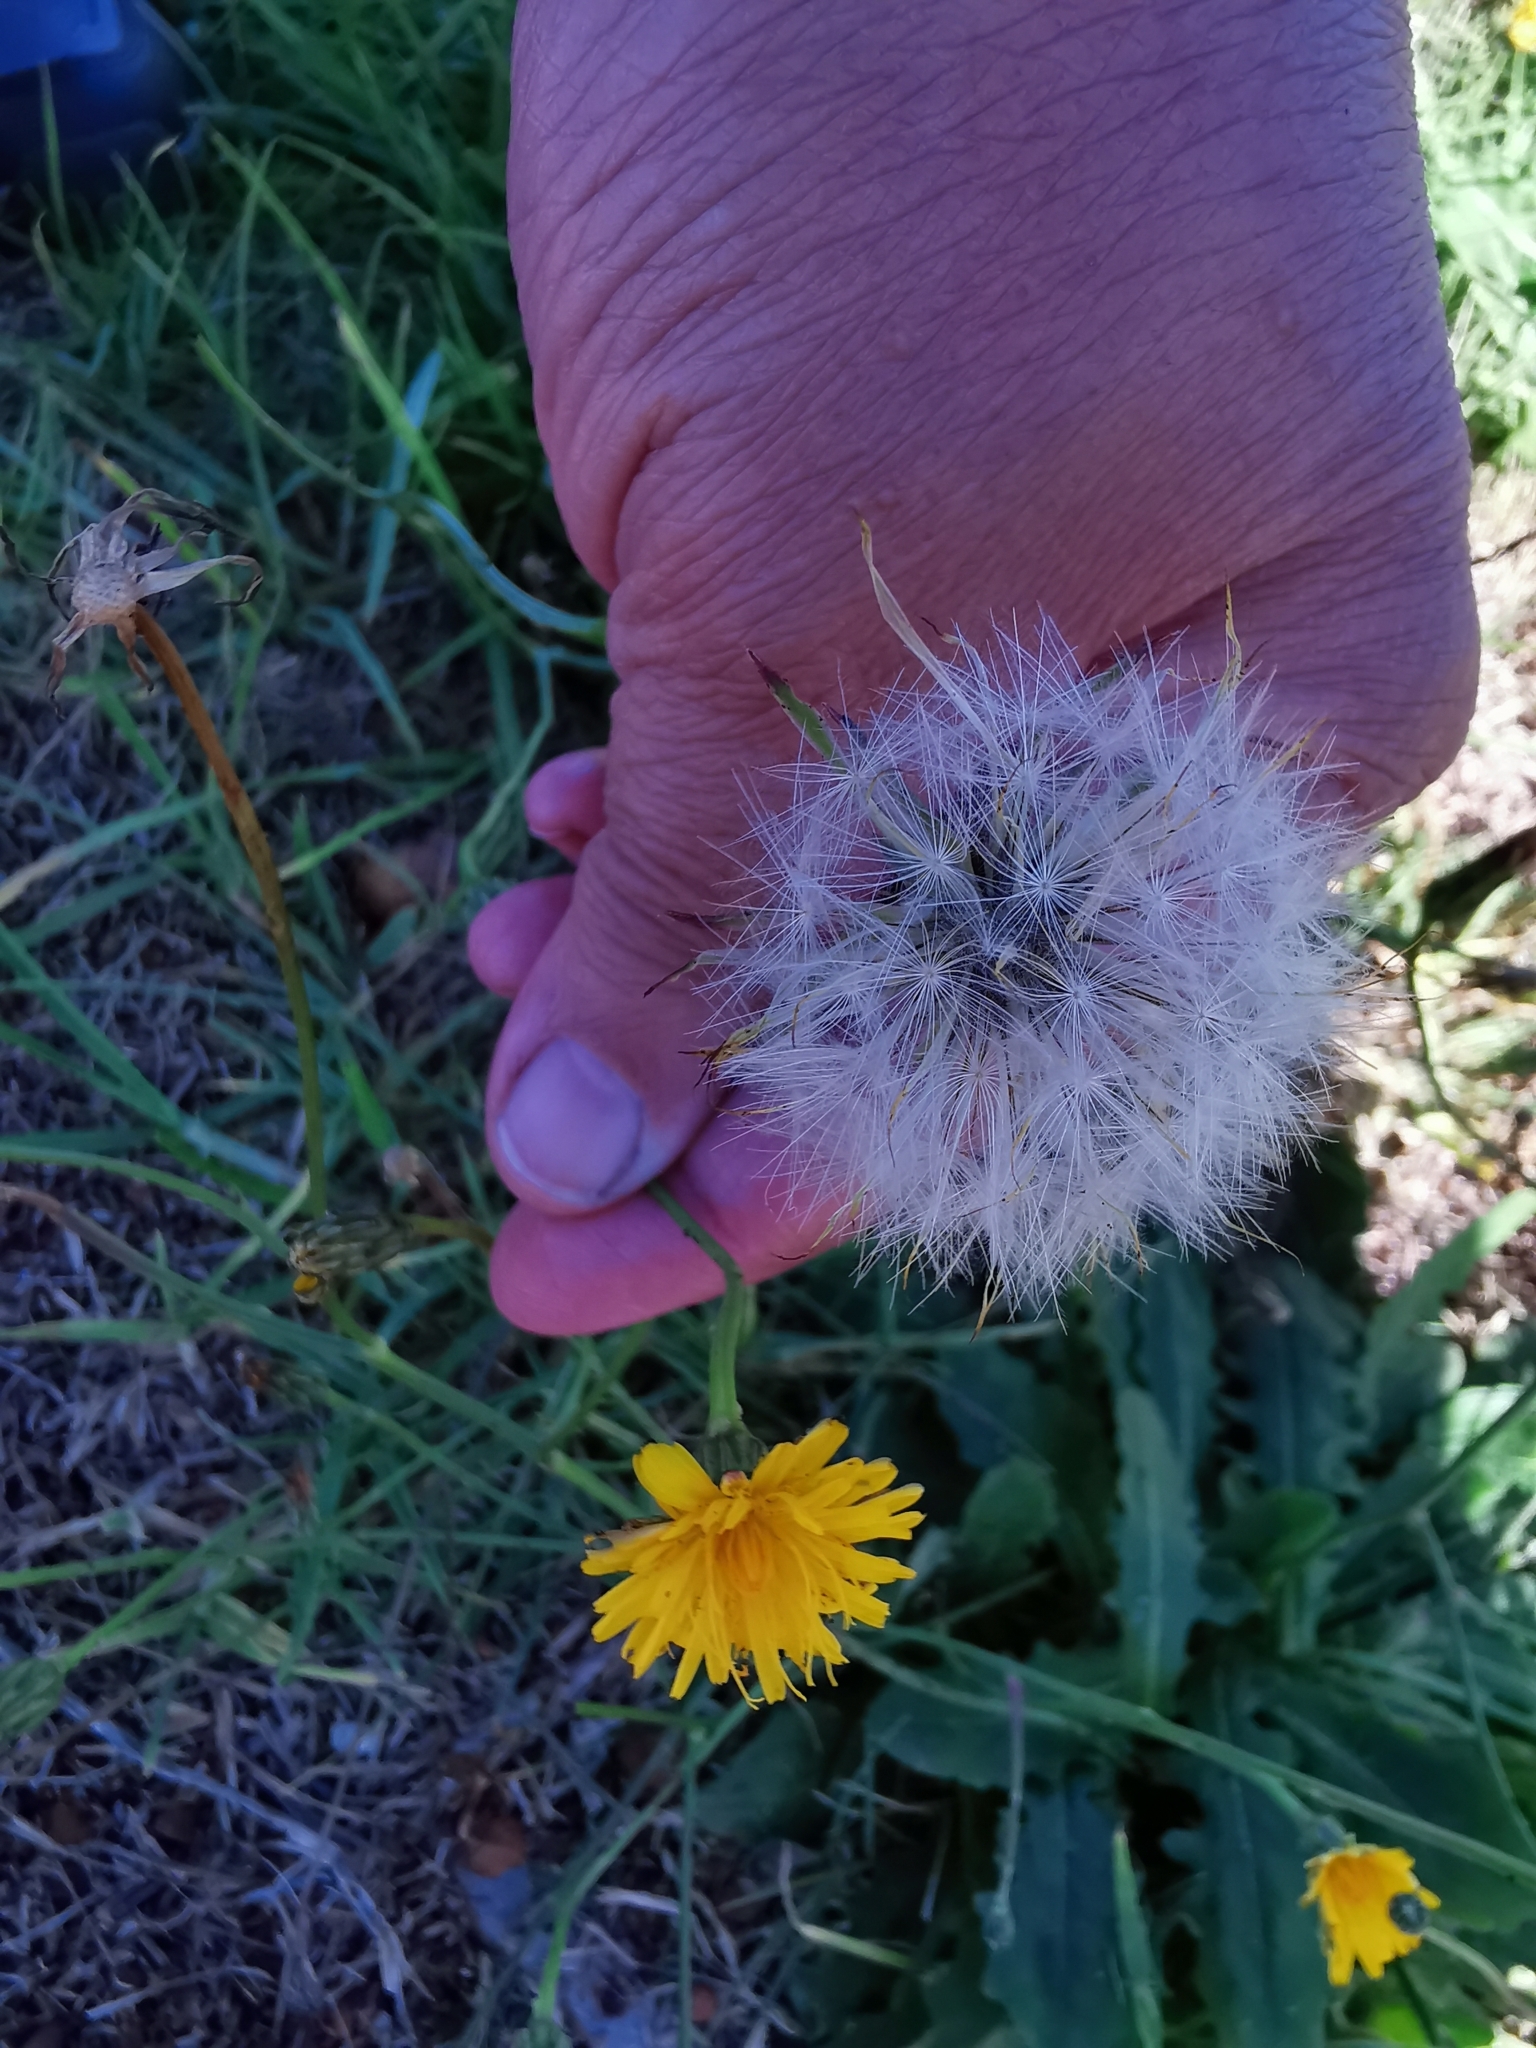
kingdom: Plantae
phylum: Tracheophyta
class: Magnoliopsida
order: Asterales
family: Asteraceae
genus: Hypochaeris
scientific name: Hypochaeris radicata
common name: Flatweed
